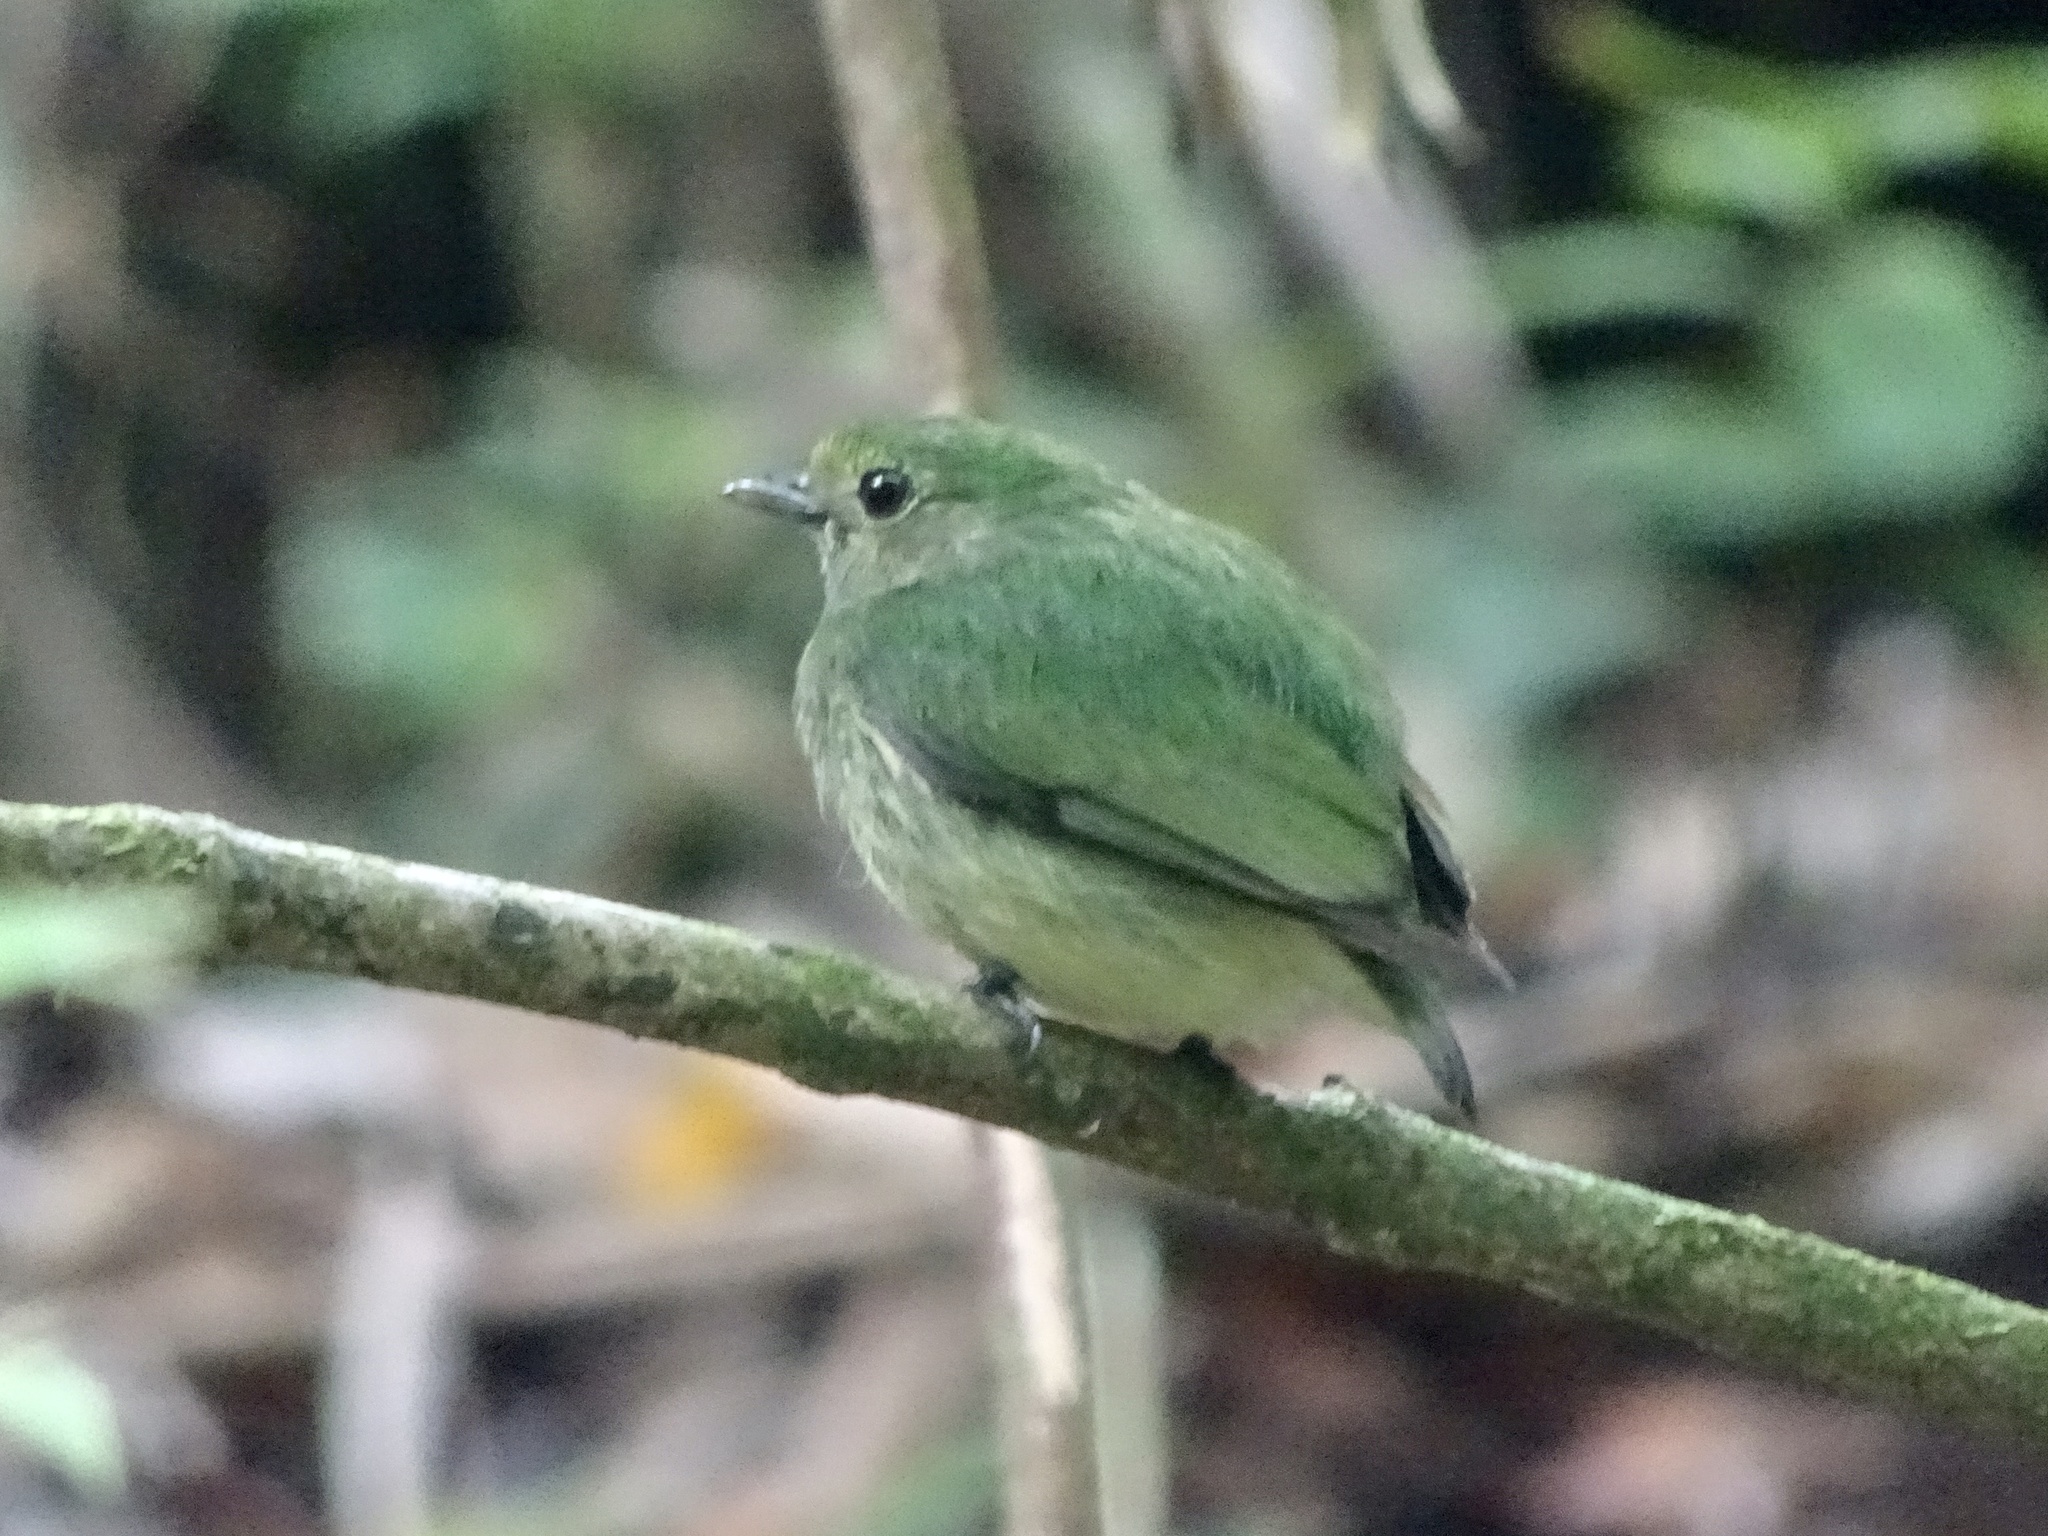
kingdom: Animalia
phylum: Chordata
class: Aves
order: Passeriformes
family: Pipridae
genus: Lepidothrix
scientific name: Lepidothrix coronata
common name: Blue-crowned manakin
